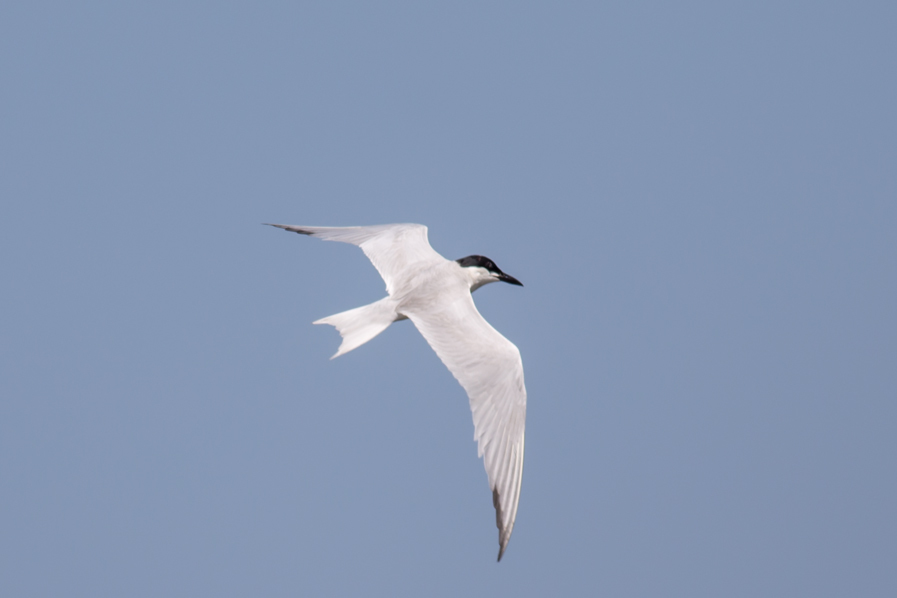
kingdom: Animalia
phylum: Chordata
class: Aves
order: Charadriiformes
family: Laridae
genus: Gelochelidon
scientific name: Gelochelidon nilotica
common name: Gull-billed tern
